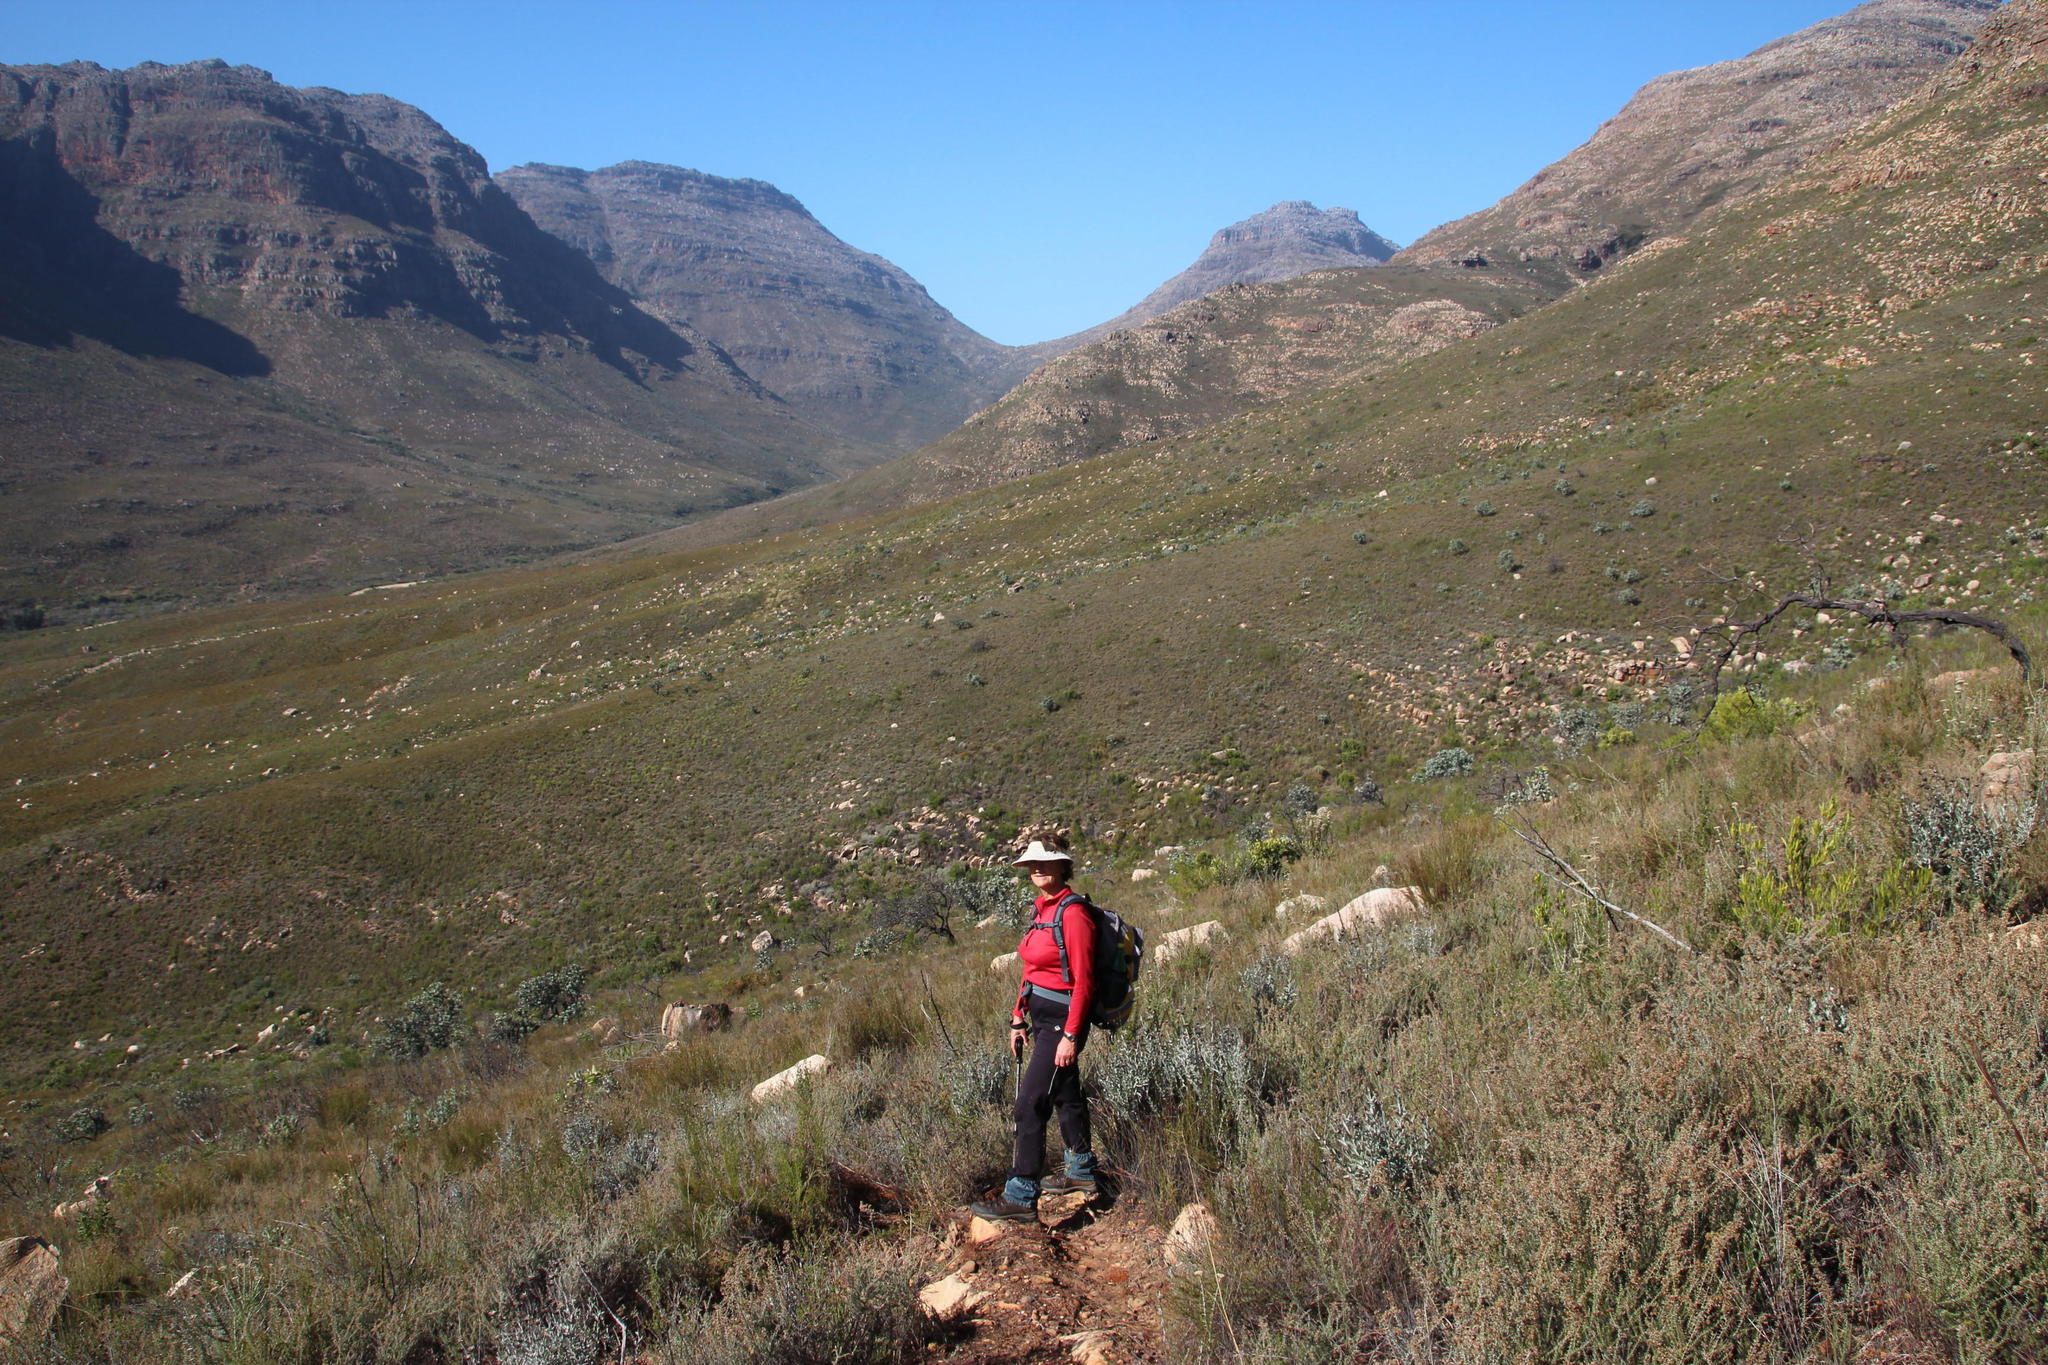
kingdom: Plantae
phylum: Tracheophyta
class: Magnoliopsida
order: Proteales
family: Proteaceae
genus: Protea
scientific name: Protea nitida
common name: Tree protea
